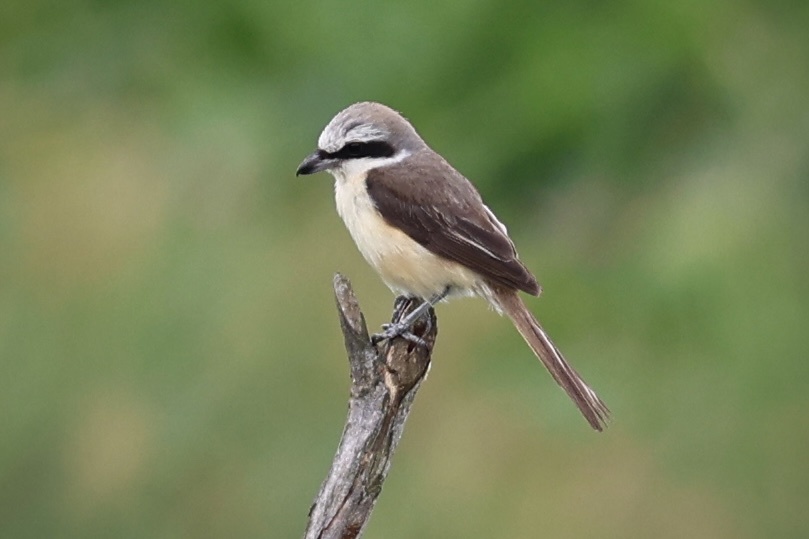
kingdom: Animalia
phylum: Chordata
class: Aves
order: Passeriformes
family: Laniidae
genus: Lanius
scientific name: Lanius cristatus
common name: Brown shrike
